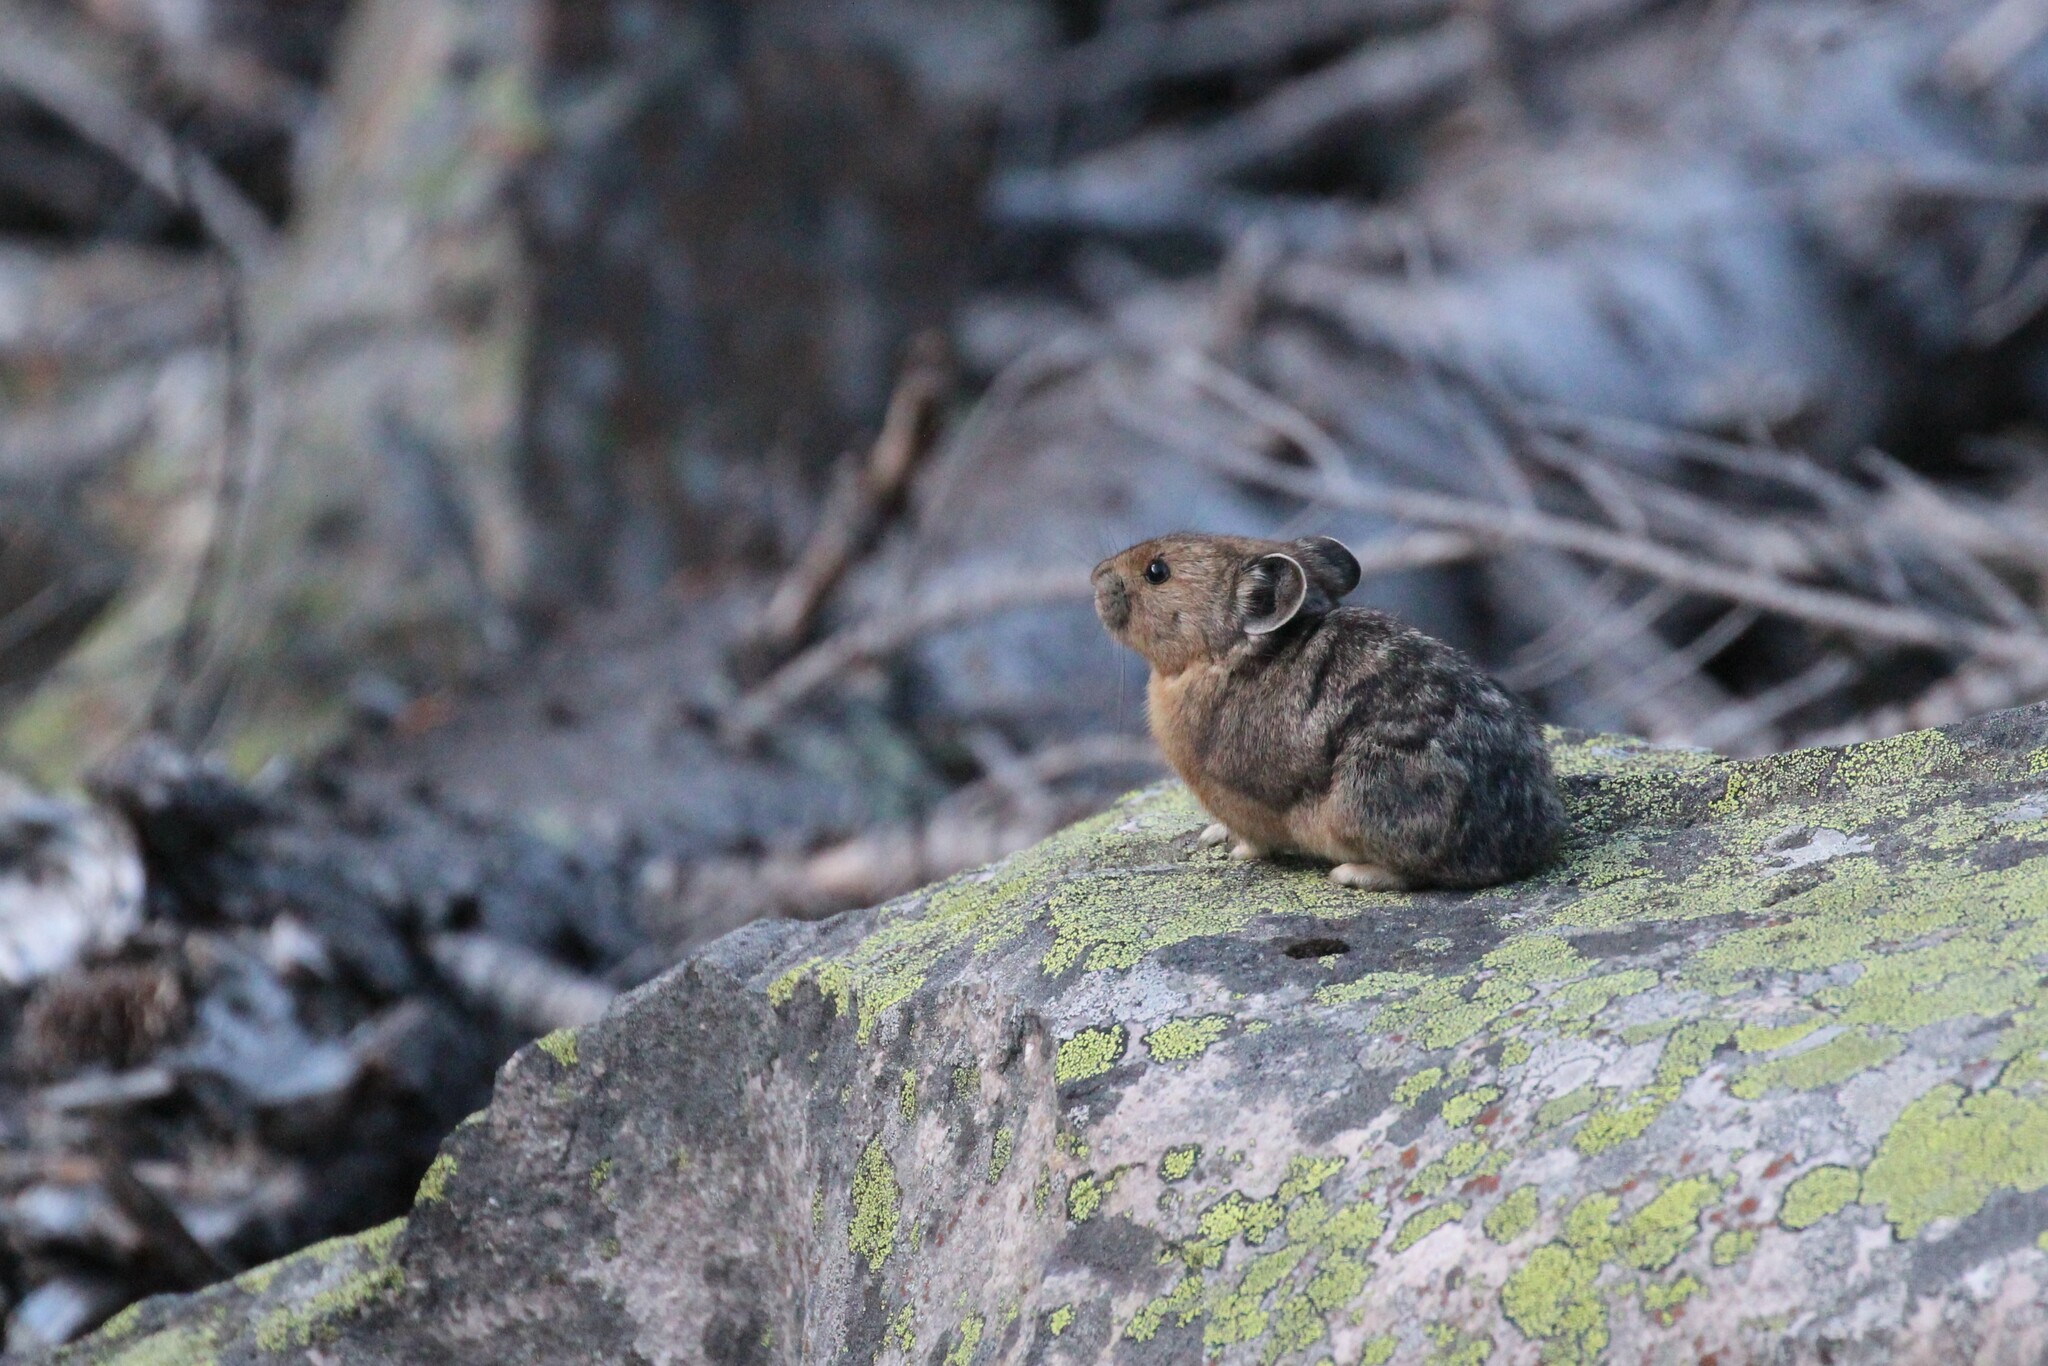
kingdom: Animalia
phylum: Chordata
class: Mammalia
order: Lagomorpha
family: Ochotonidae
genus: Ochotona
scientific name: Ochotona princeps
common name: American pika
